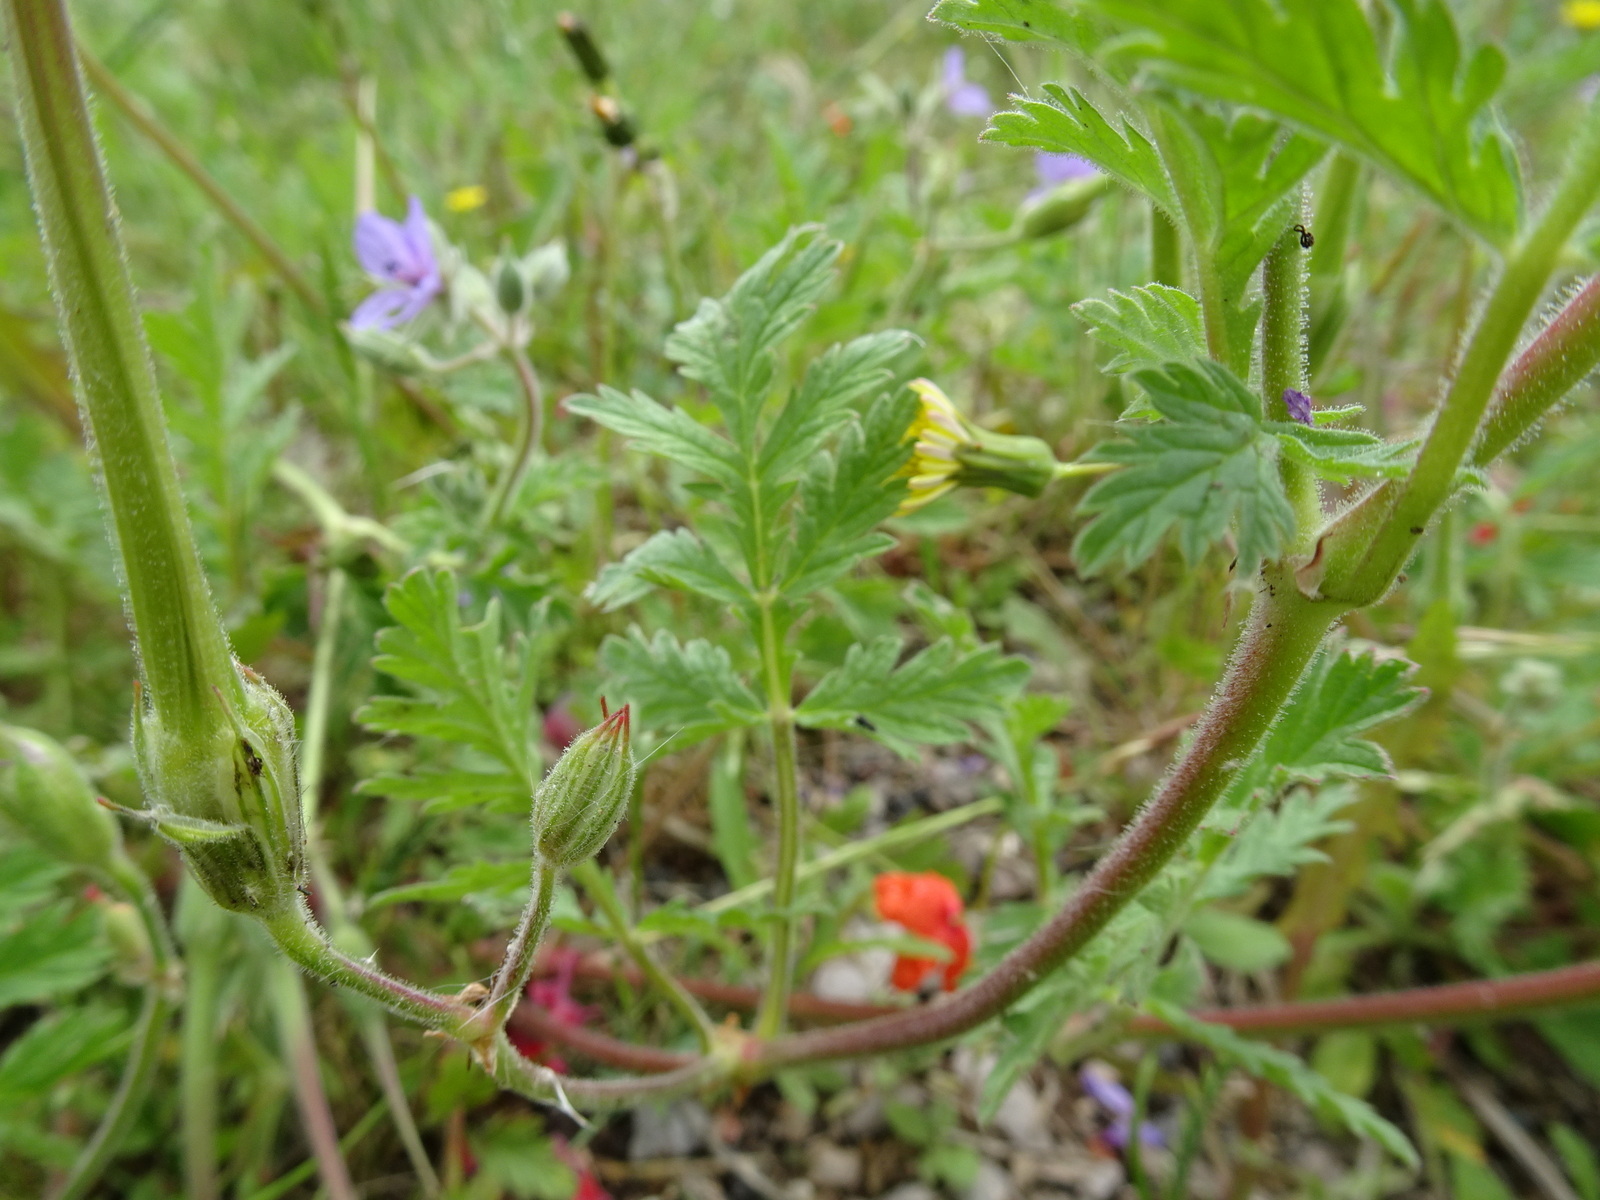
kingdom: Plantae
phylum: Tracheophyta
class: Magnoliopsida
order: Geraniales
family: Geraniaceae
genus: Erodium
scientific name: Erodium ciconium
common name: Common stork's bill
